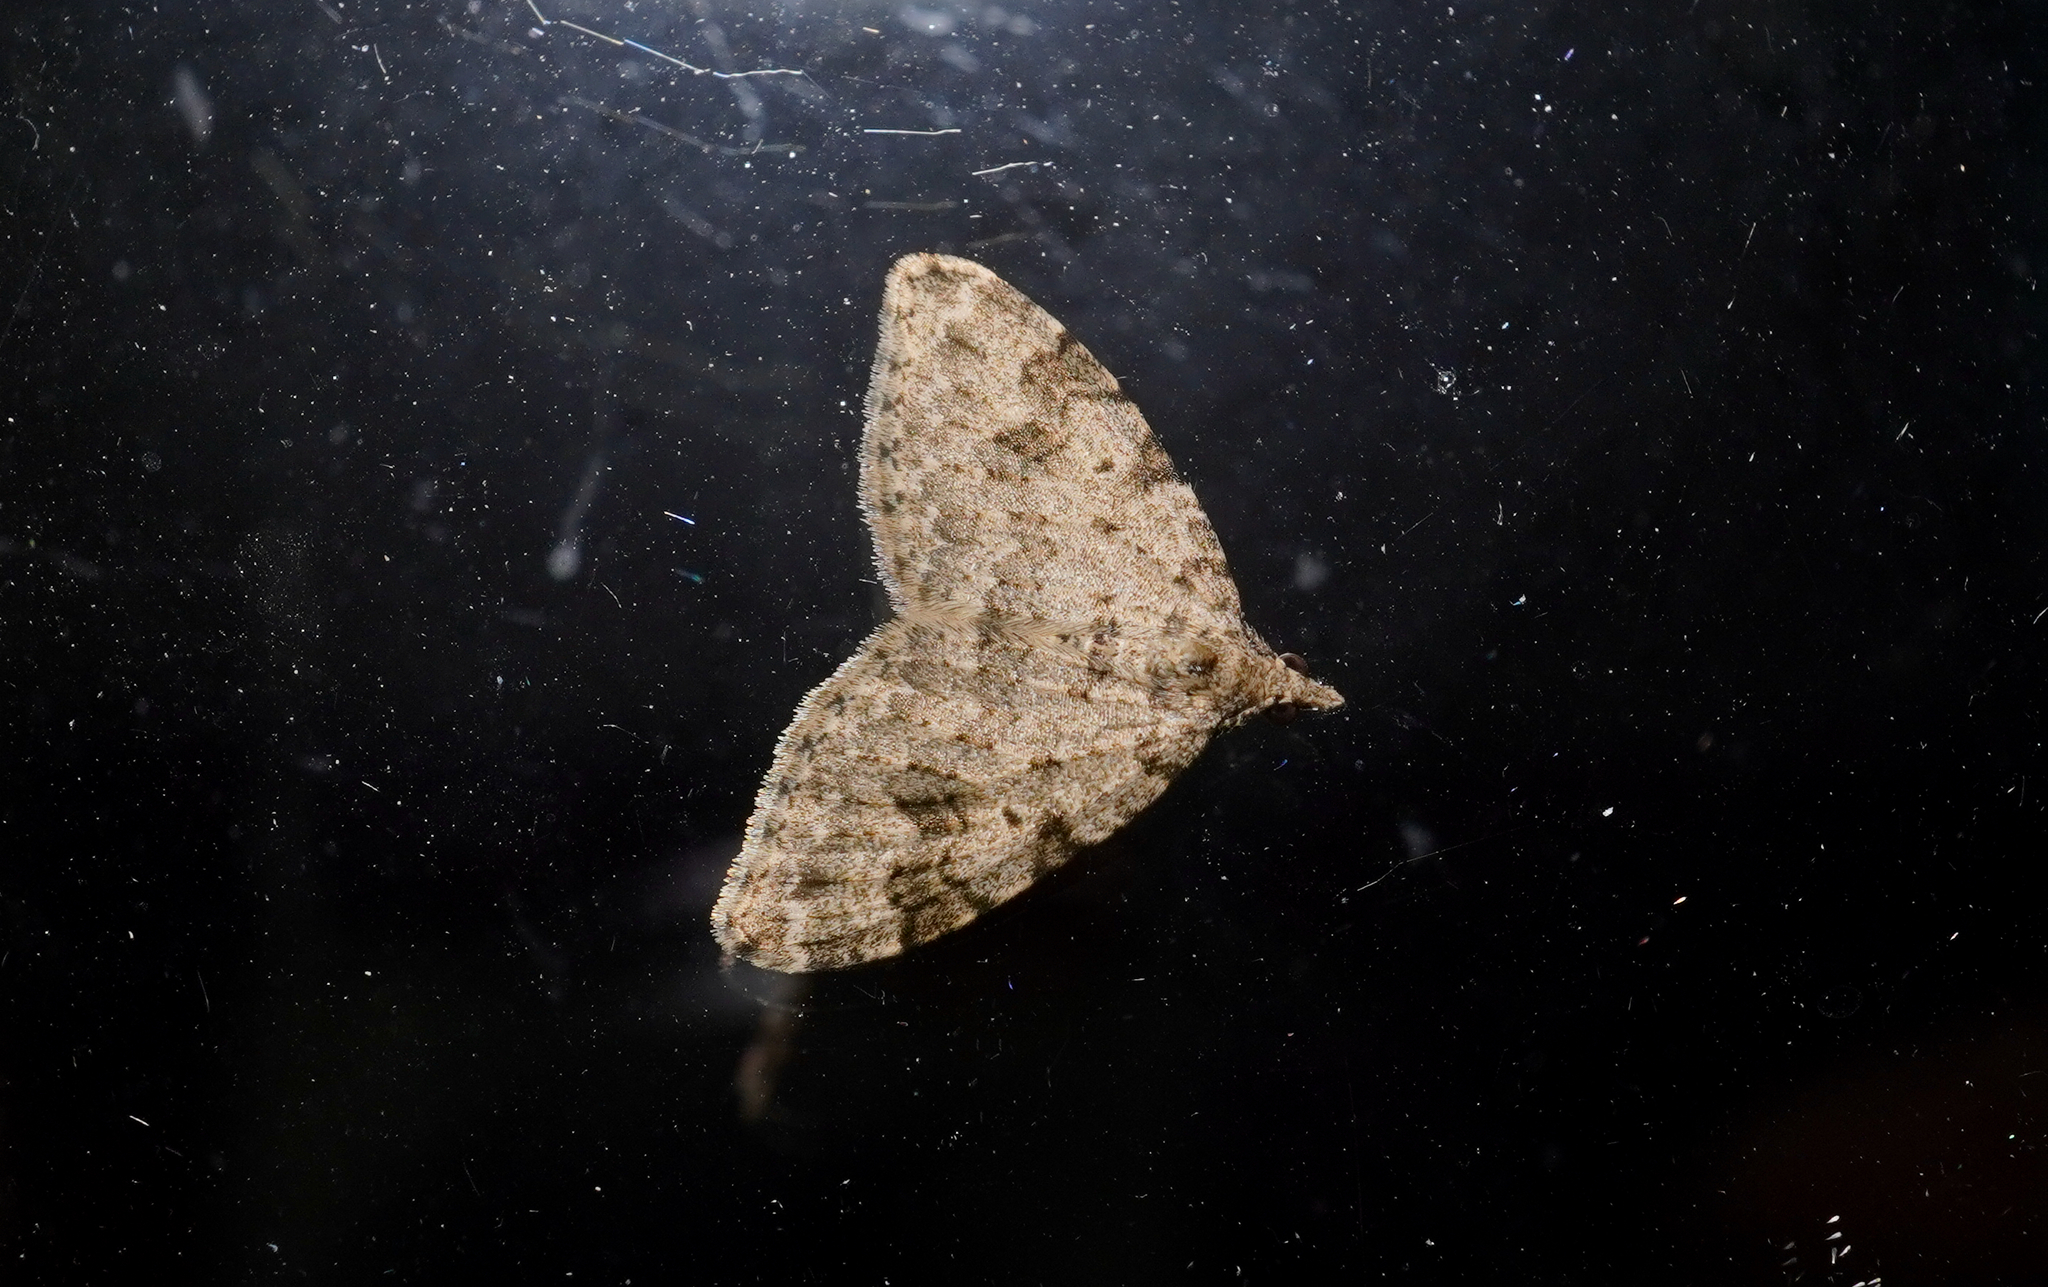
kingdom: Animalia
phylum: Arthropoda
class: Insecta
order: Lepidoptera
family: Geometridae
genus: Helastia
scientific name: Helastia cinerearia
